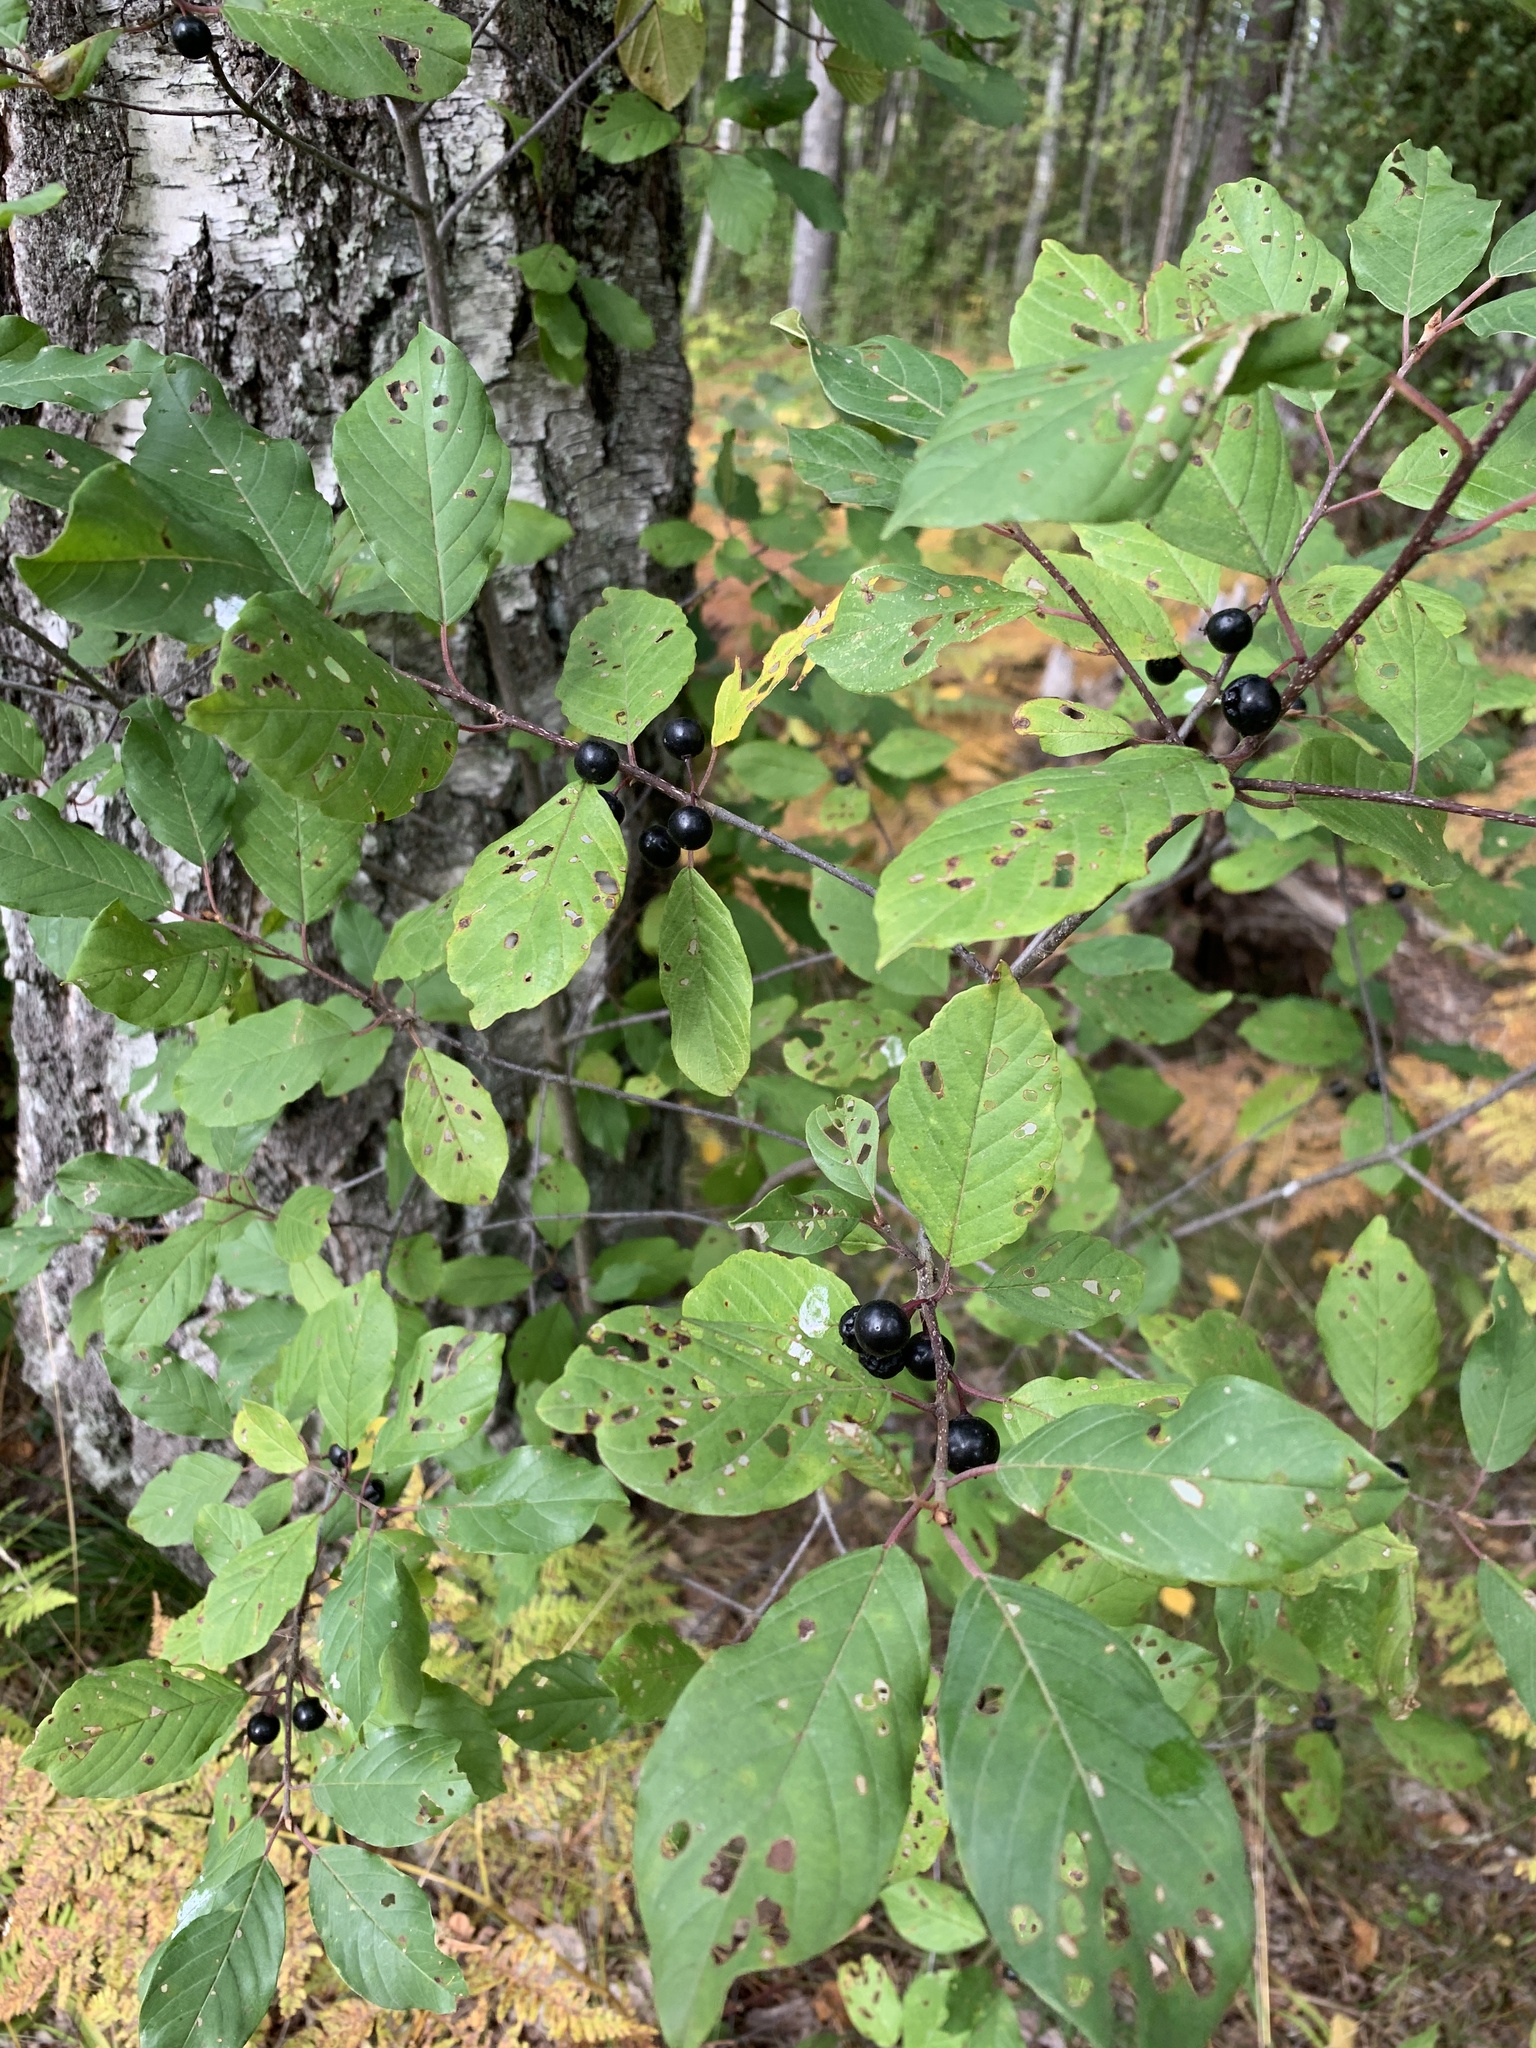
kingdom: Plantae
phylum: Tracheophyta
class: Magnoliopsida
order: Rosales
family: Rhamnaceae
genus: Frangula
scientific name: Frangula alnus
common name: Alder buckthorn
